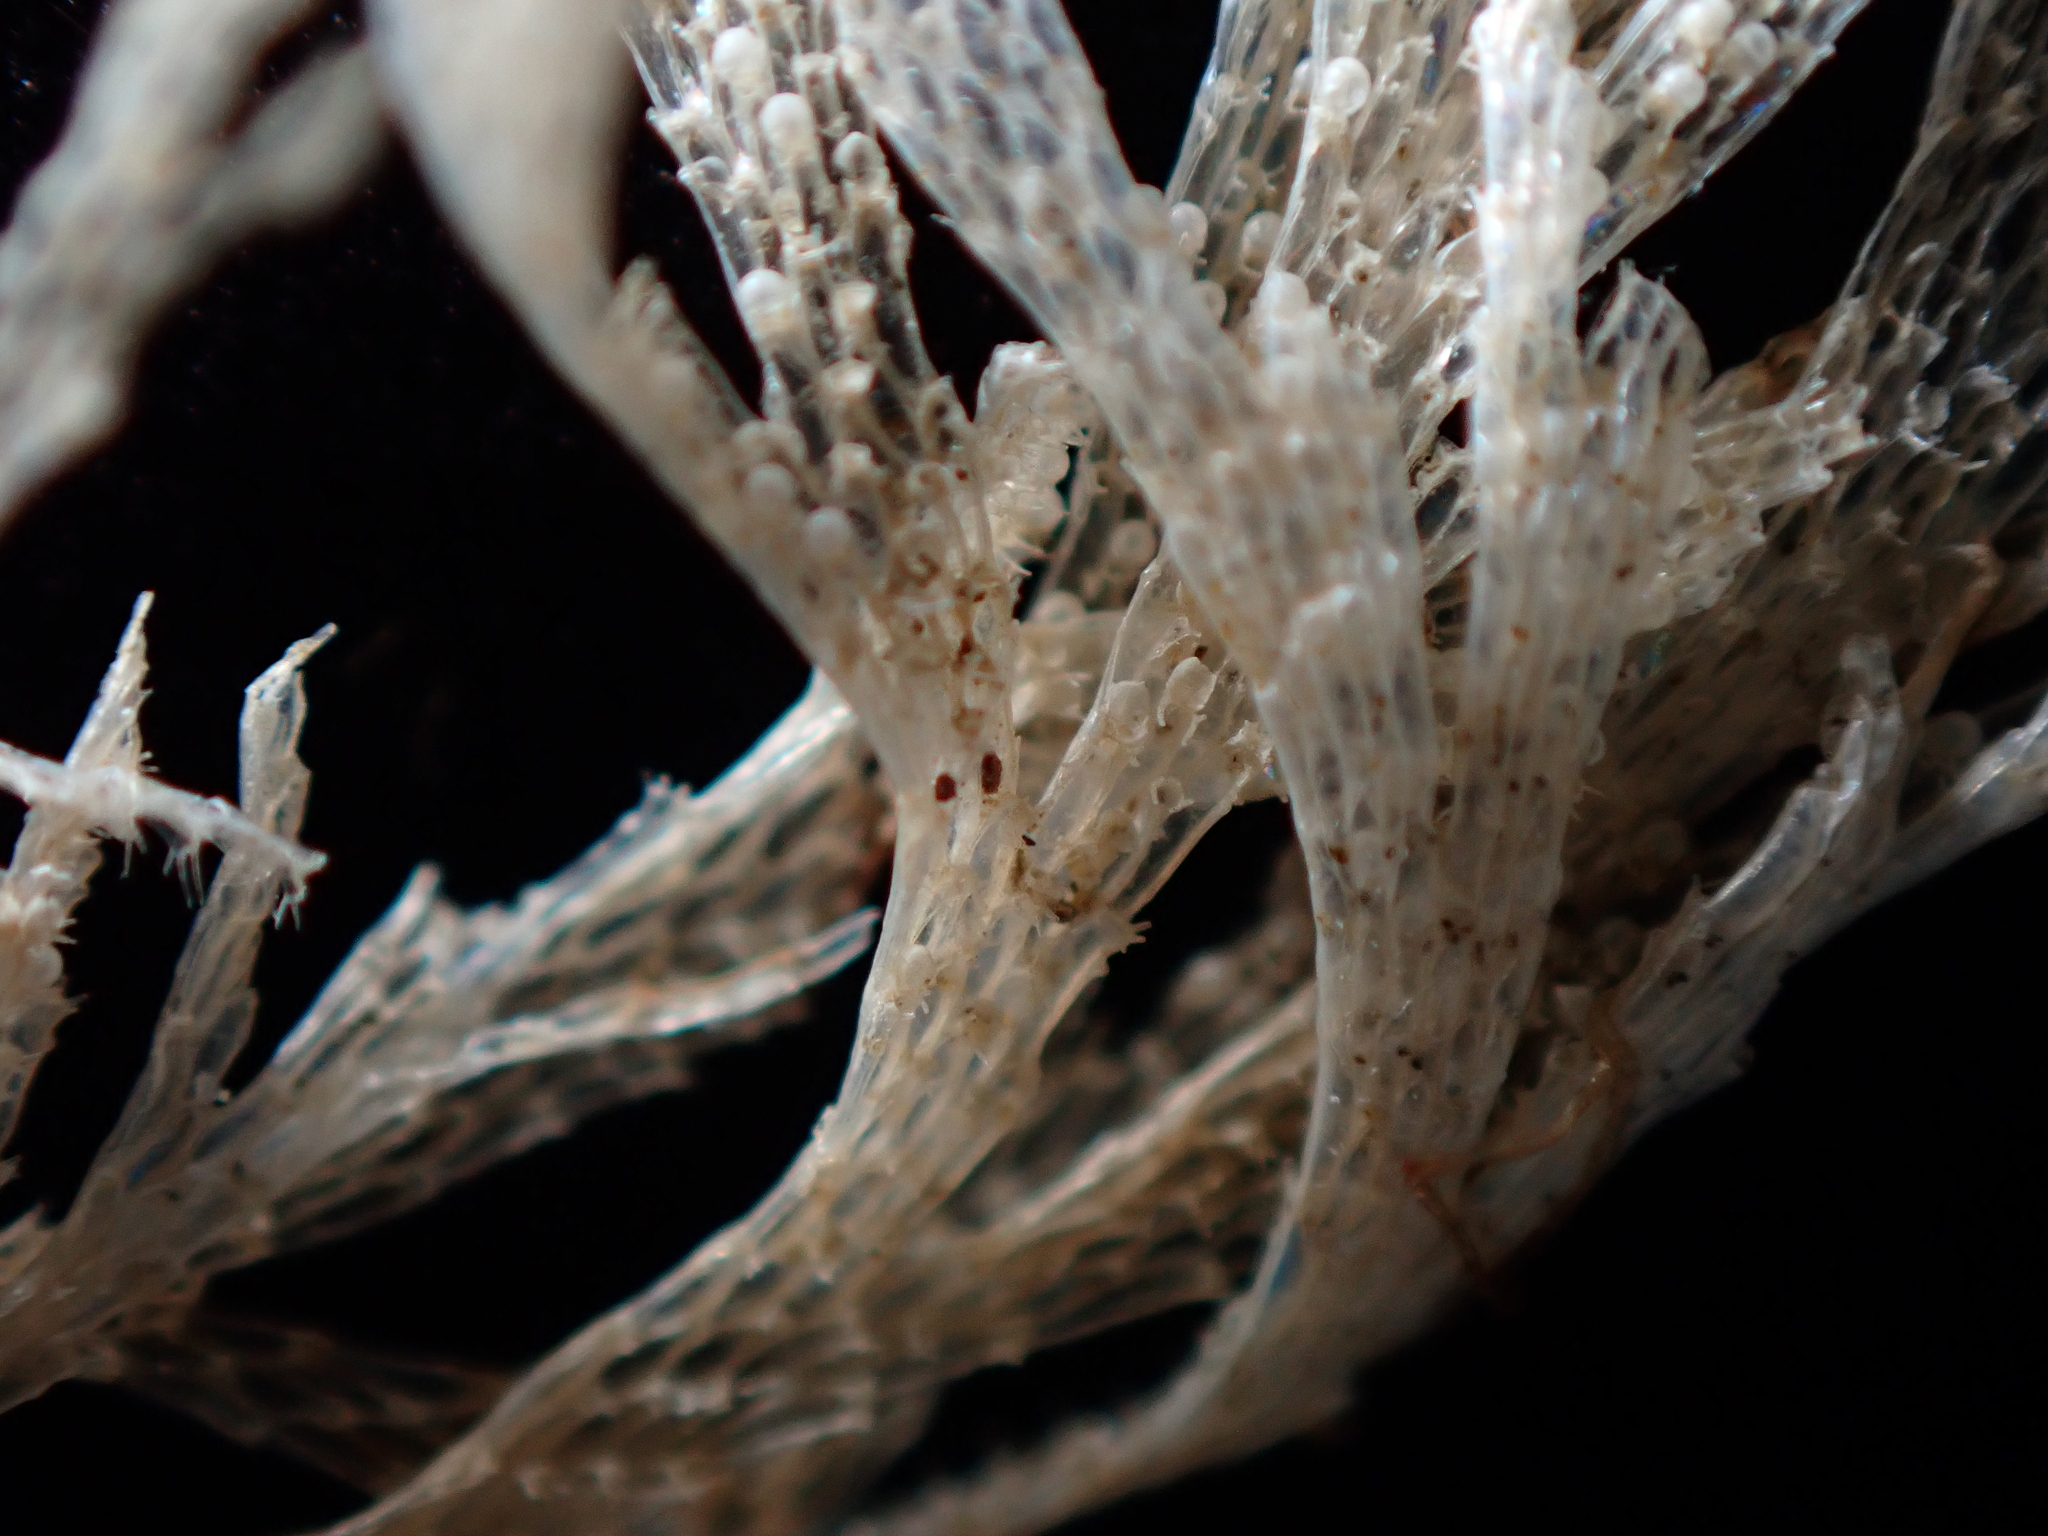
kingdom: Animalia
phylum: Bryozoa
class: Gymnolaemata
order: Cheilostomatida
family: Bugulidae
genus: Bugulina
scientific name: Bugulina flabellata
